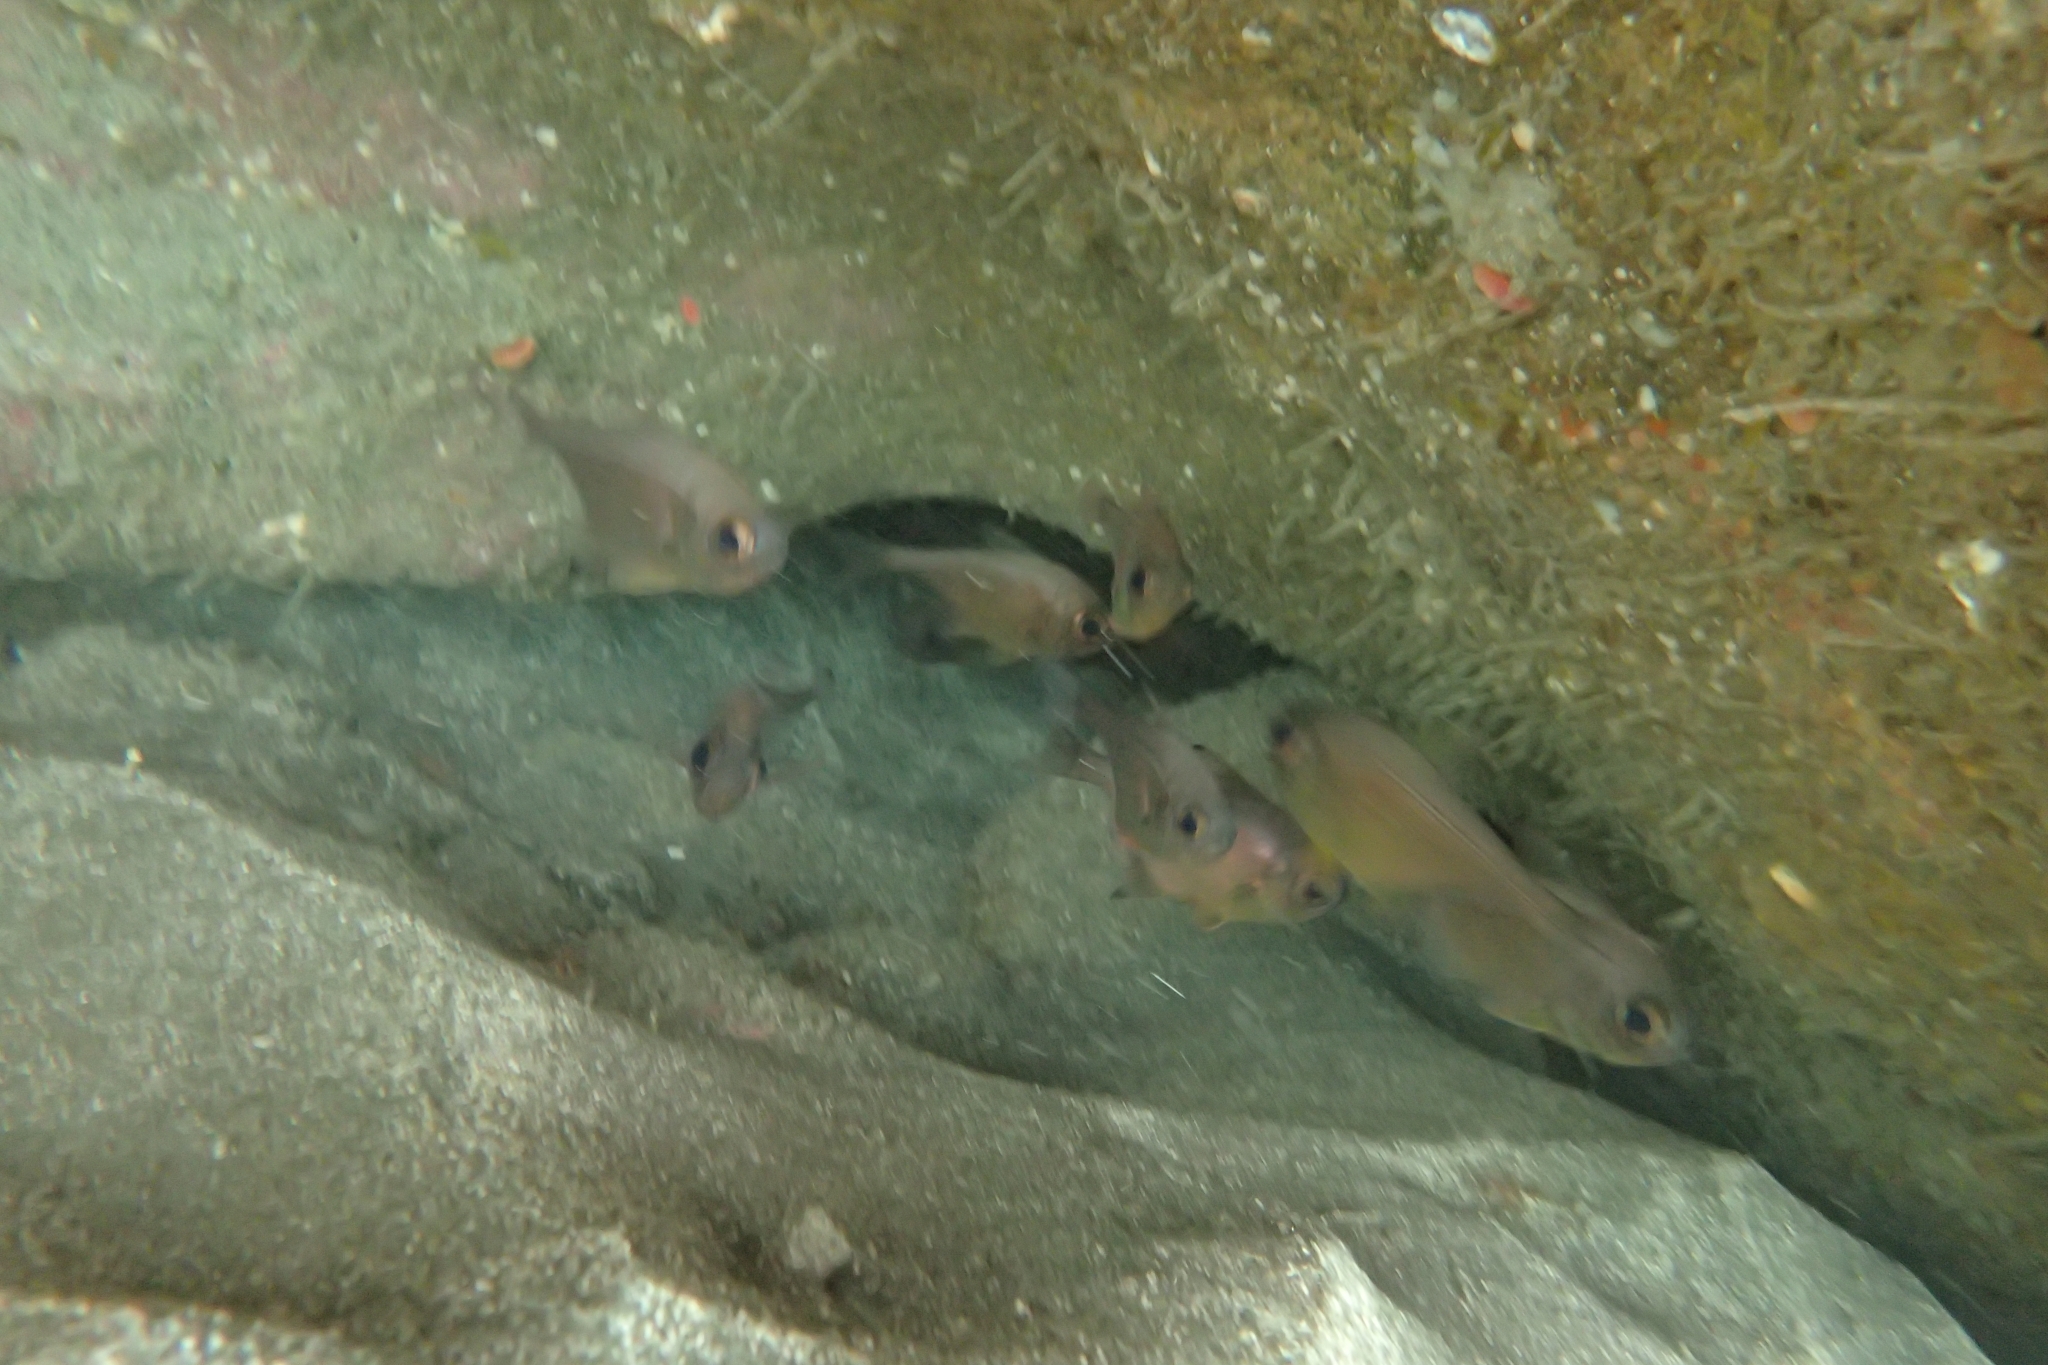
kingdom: Animalia
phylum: Chordata
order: Perciformes
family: Pempheridae
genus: Pempheris
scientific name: Pempheris adspersa
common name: Bigeye
